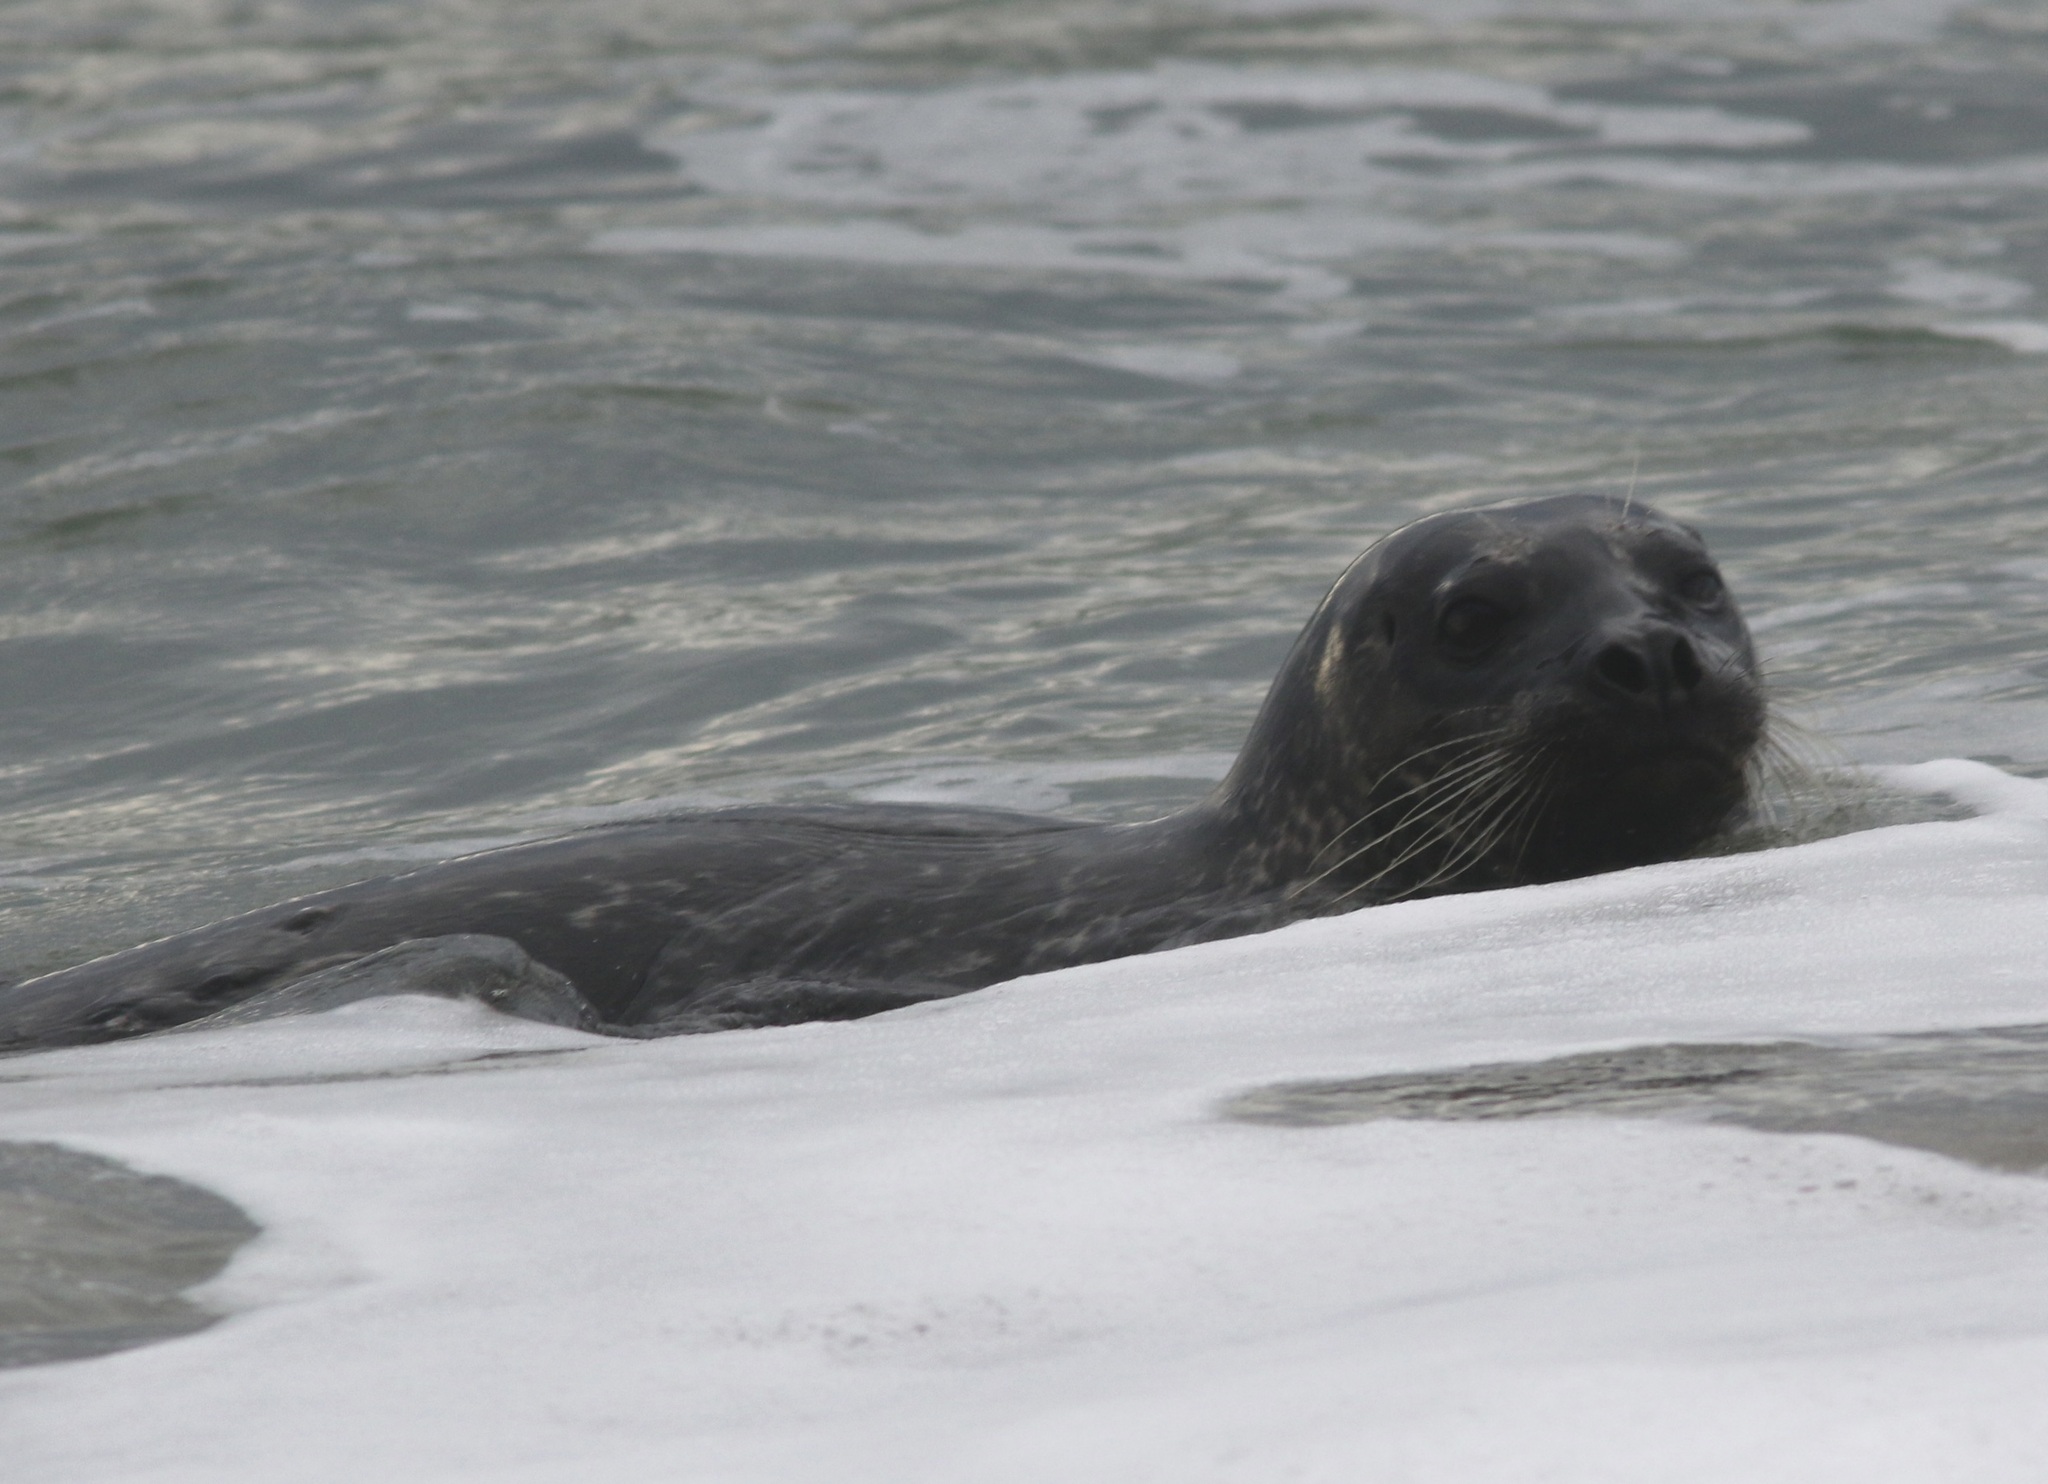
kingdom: Animalia
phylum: Chordata
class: Mammalia
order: Carnivora
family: Phocidae
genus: Phoca
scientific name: Phoca vitulina
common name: Harbor seal
